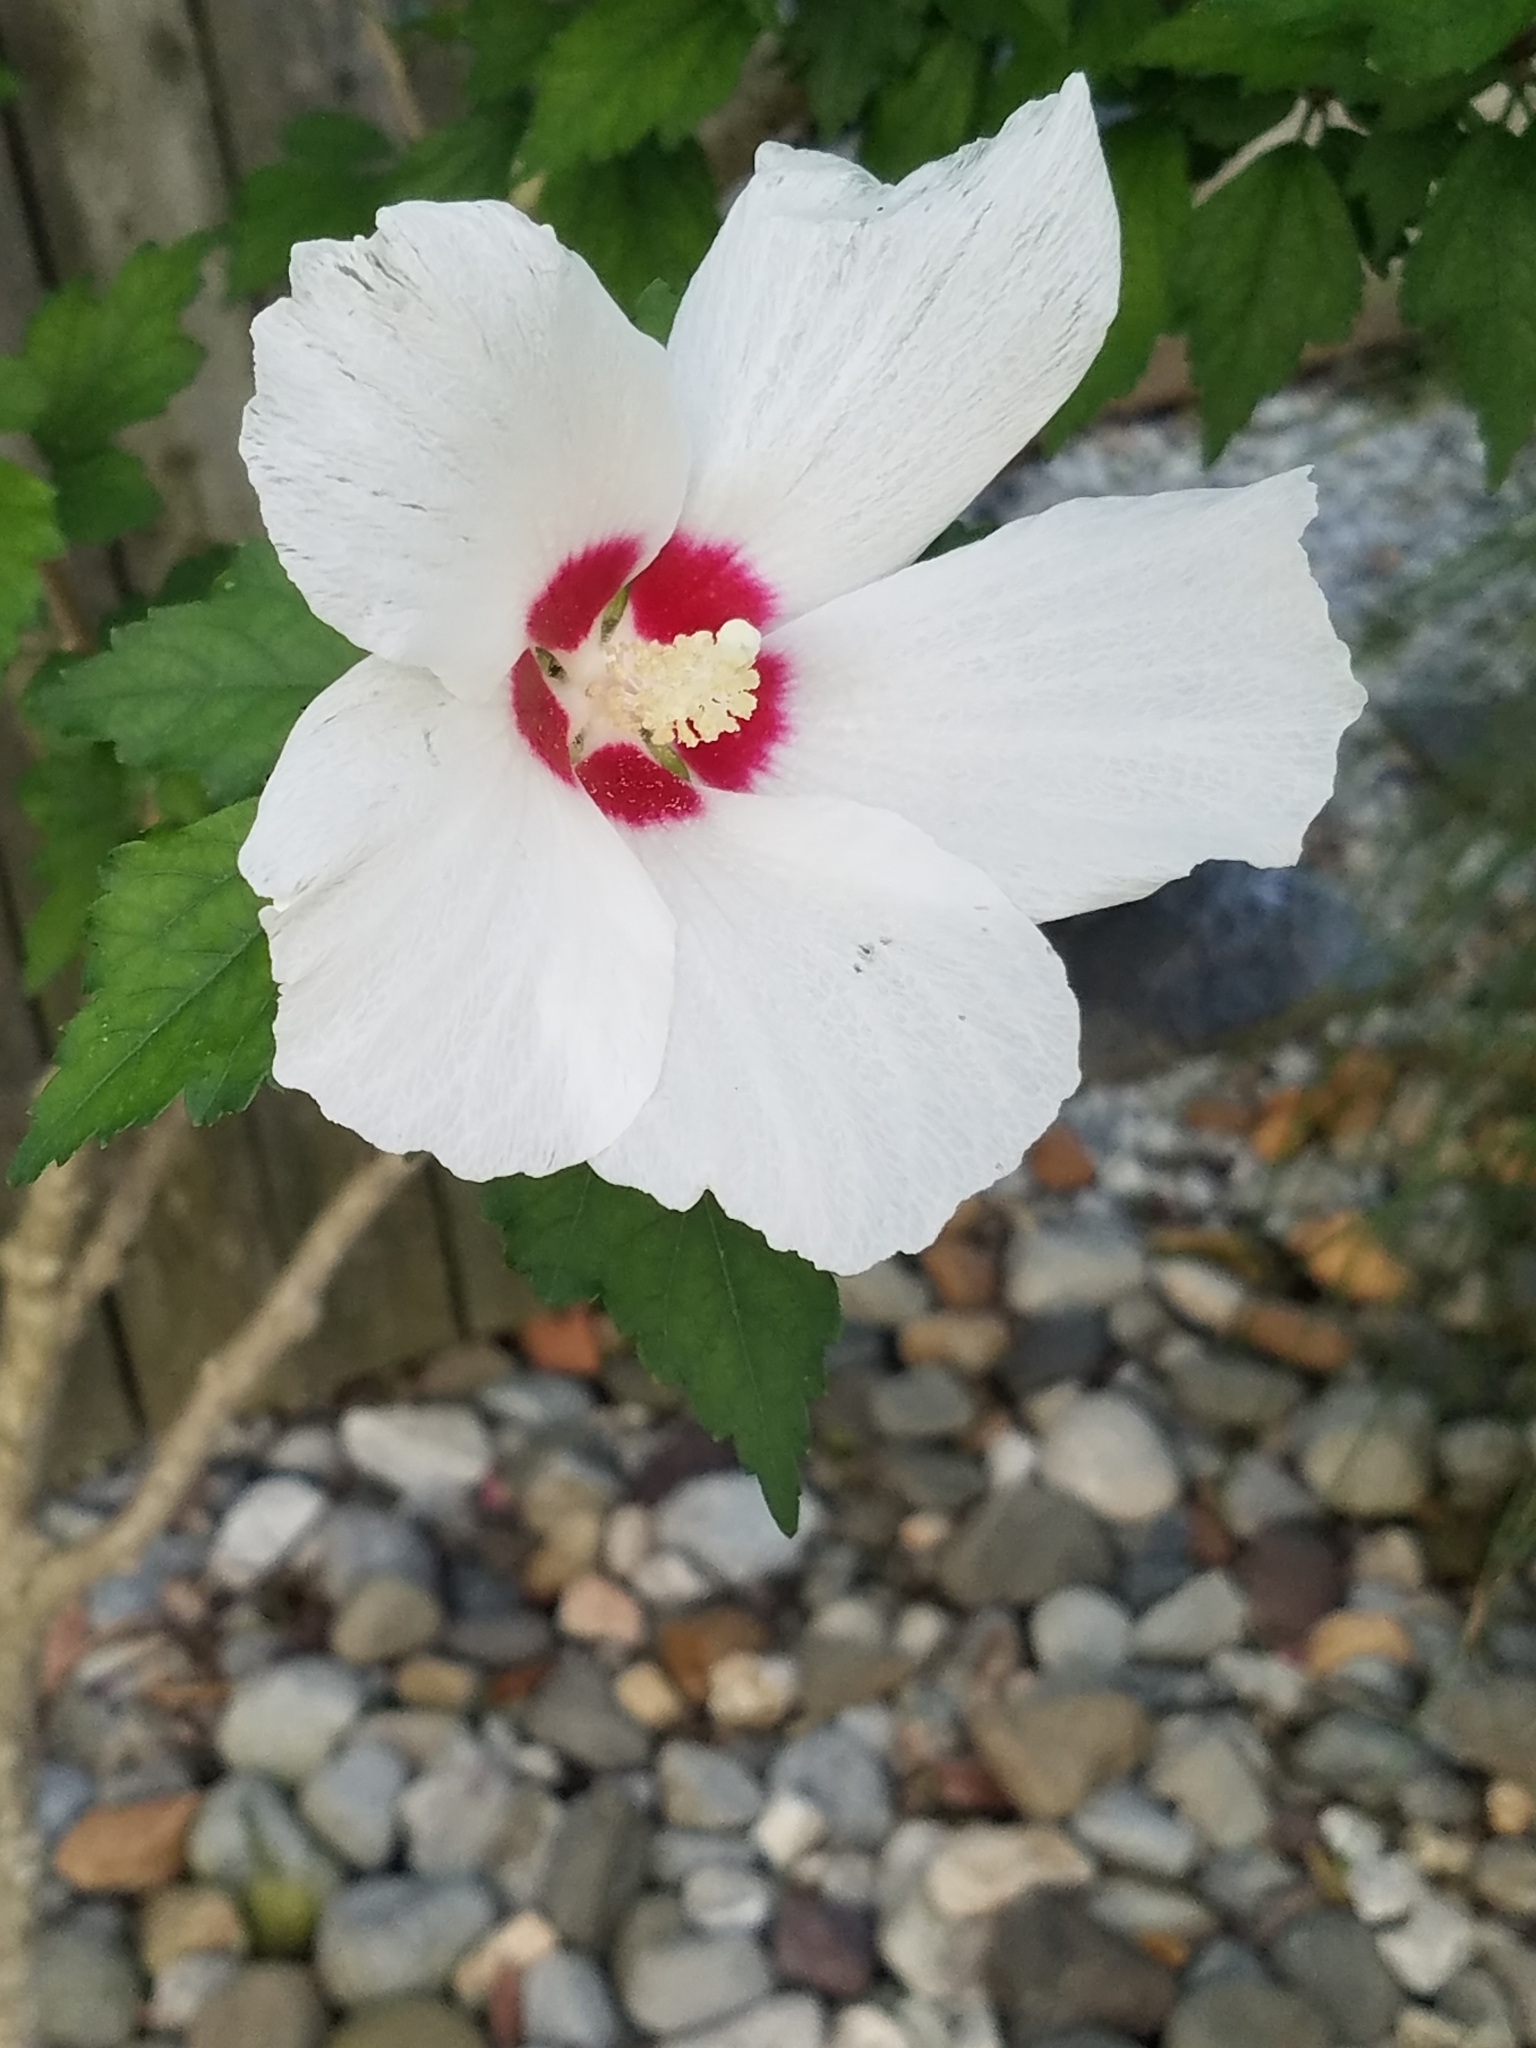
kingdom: Plantae
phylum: Tracheophyta
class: Magnoliopsida
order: Malvales
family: Malvaceae
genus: Hibiscus
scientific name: Hibiscus syriacus
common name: Syrian ketmia
